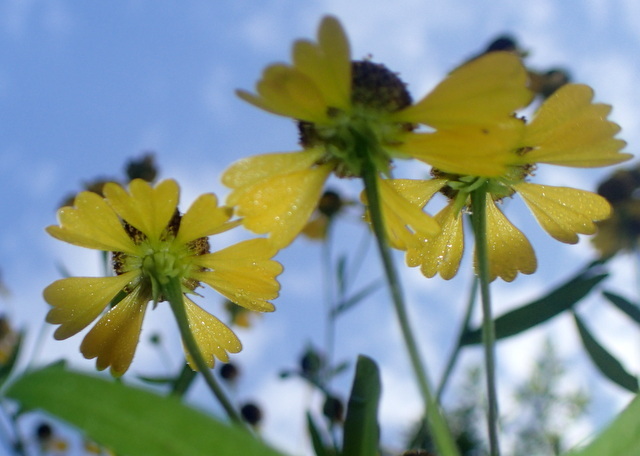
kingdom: Plantae
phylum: Tracheophyta
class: Magnoliopsida
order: Asterales
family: Asteraceae
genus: Helenium
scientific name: Helenium flexuosum
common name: Naked-flowered sneezeweed
